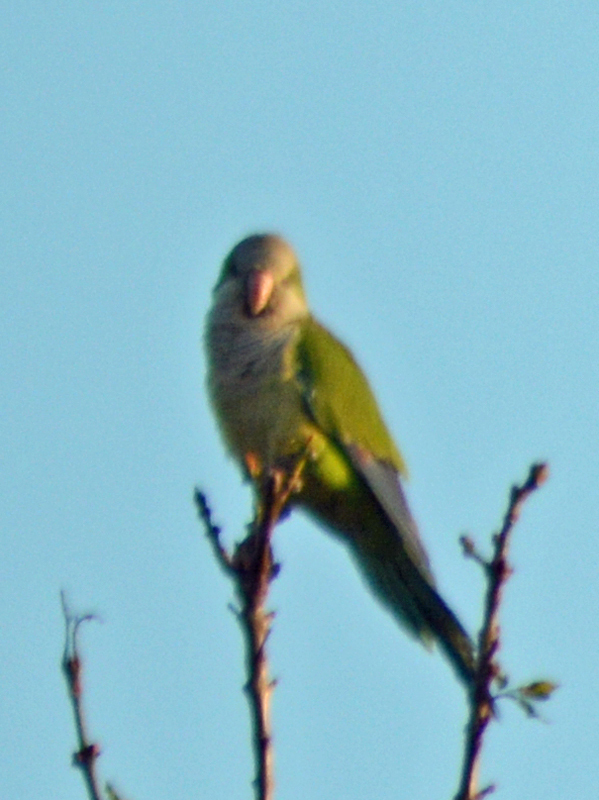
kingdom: Animalia
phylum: Chordata
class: Aves
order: Psittaciformes
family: Psittacidae
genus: Myiopsitta
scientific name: Myiopsitta monachus
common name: Monk parakeet
